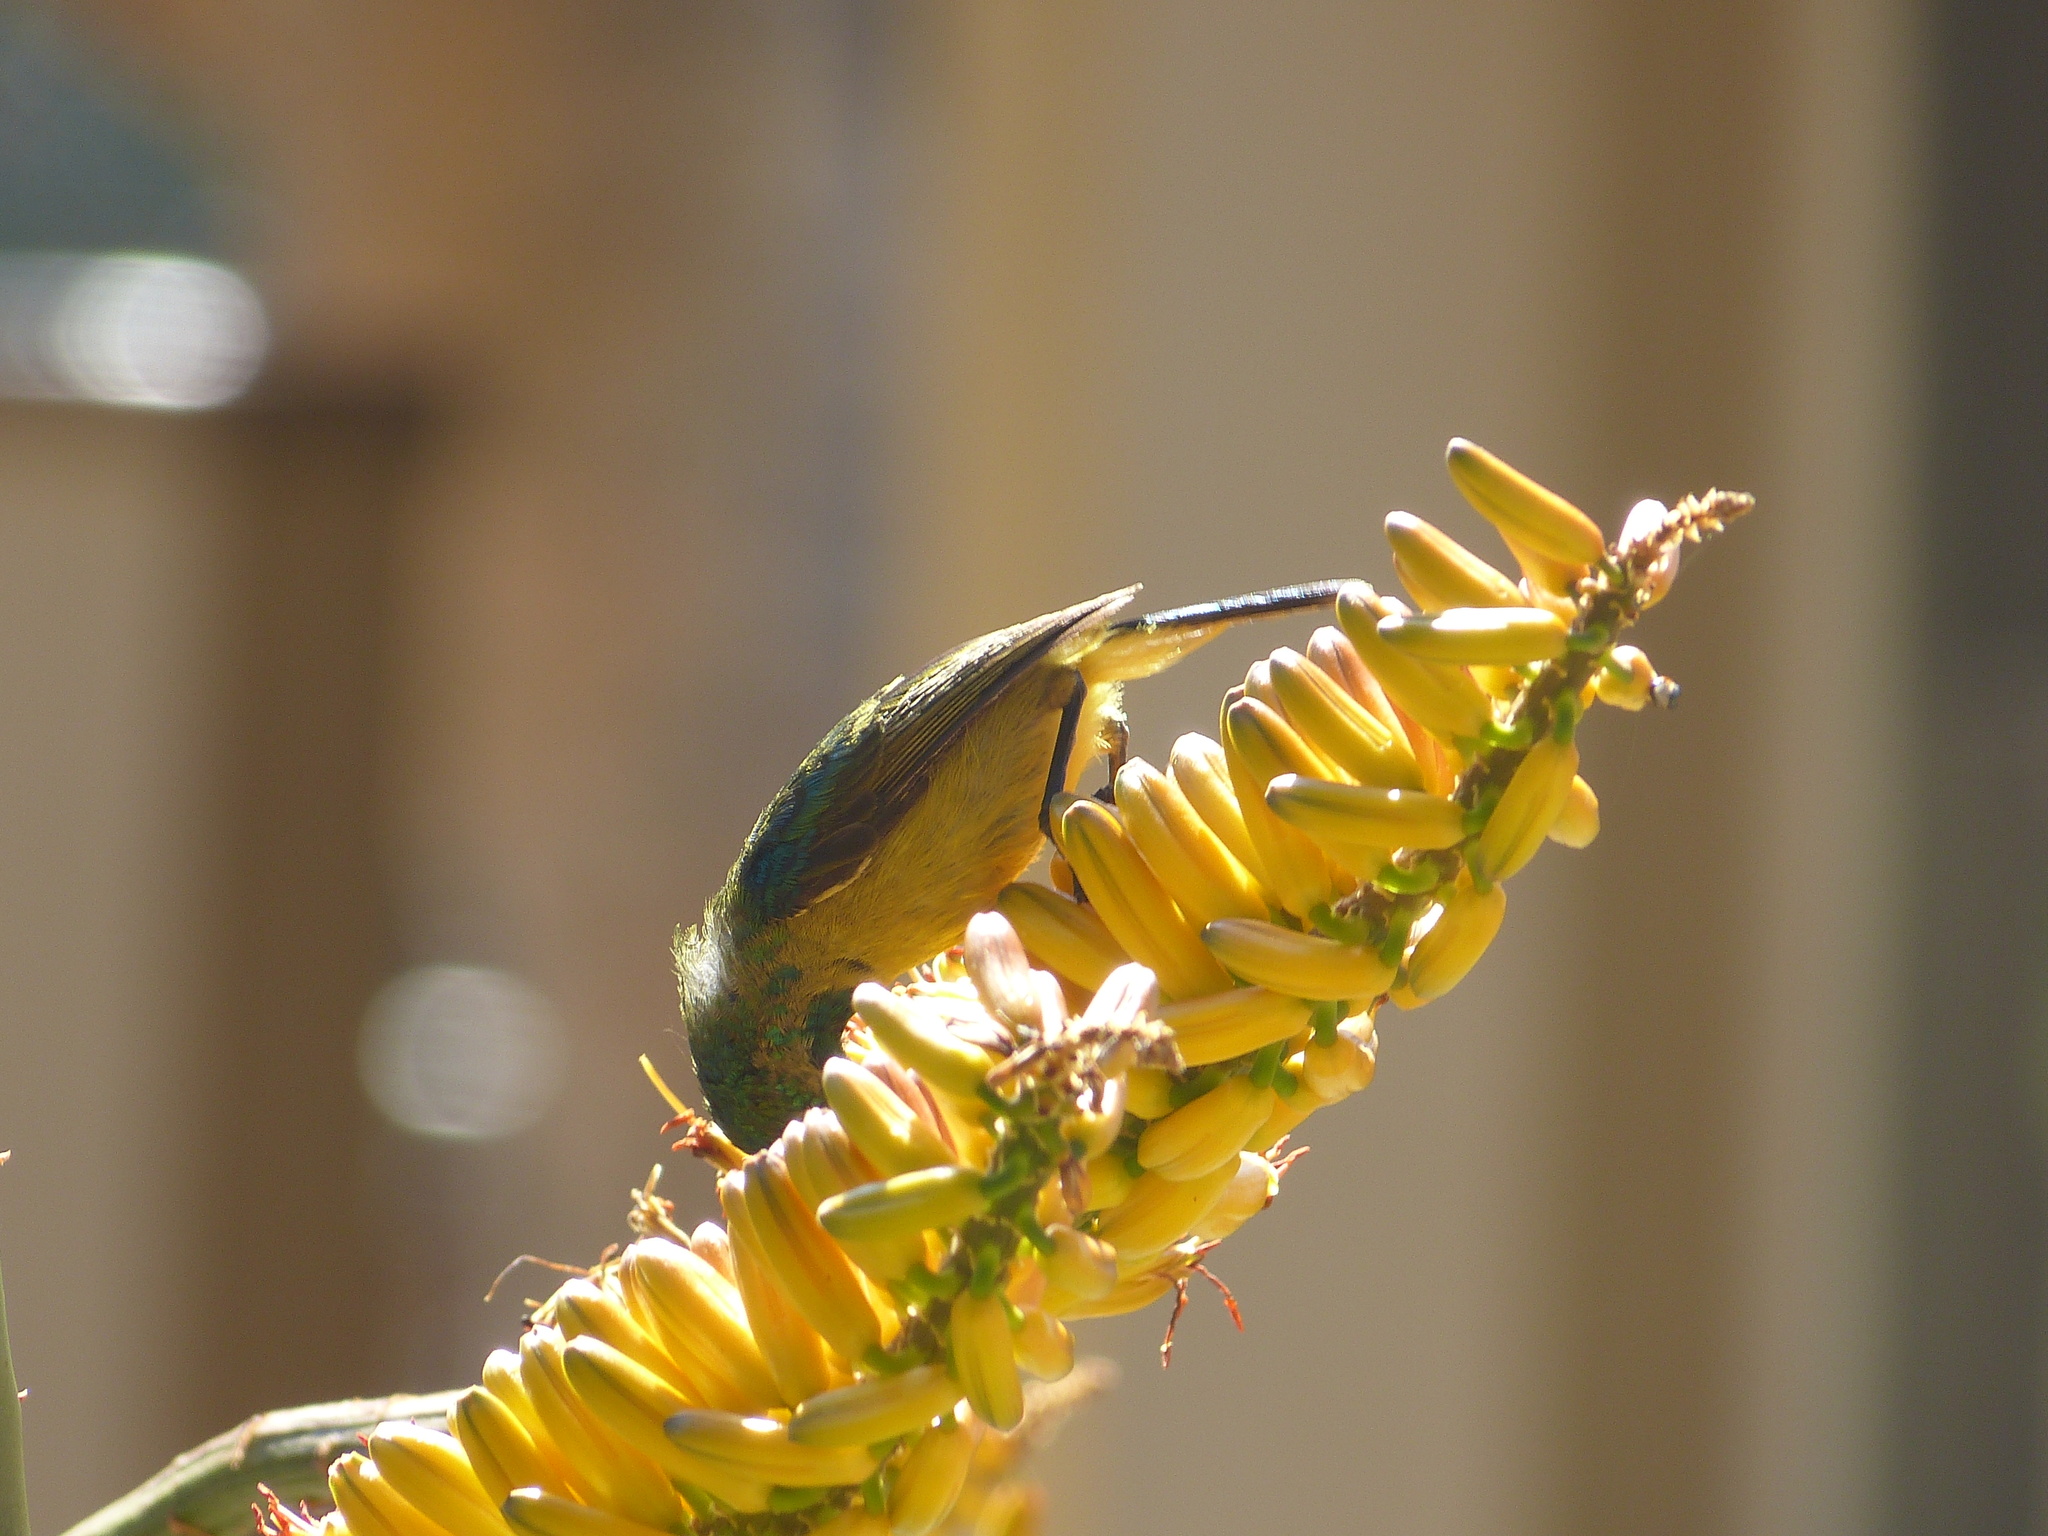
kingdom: Animalia
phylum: Chordata
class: Aves
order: Passeriformes
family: Nectariniidae
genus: Hedydipna
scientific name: Hedydipna collaris
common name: Collared sunbird
